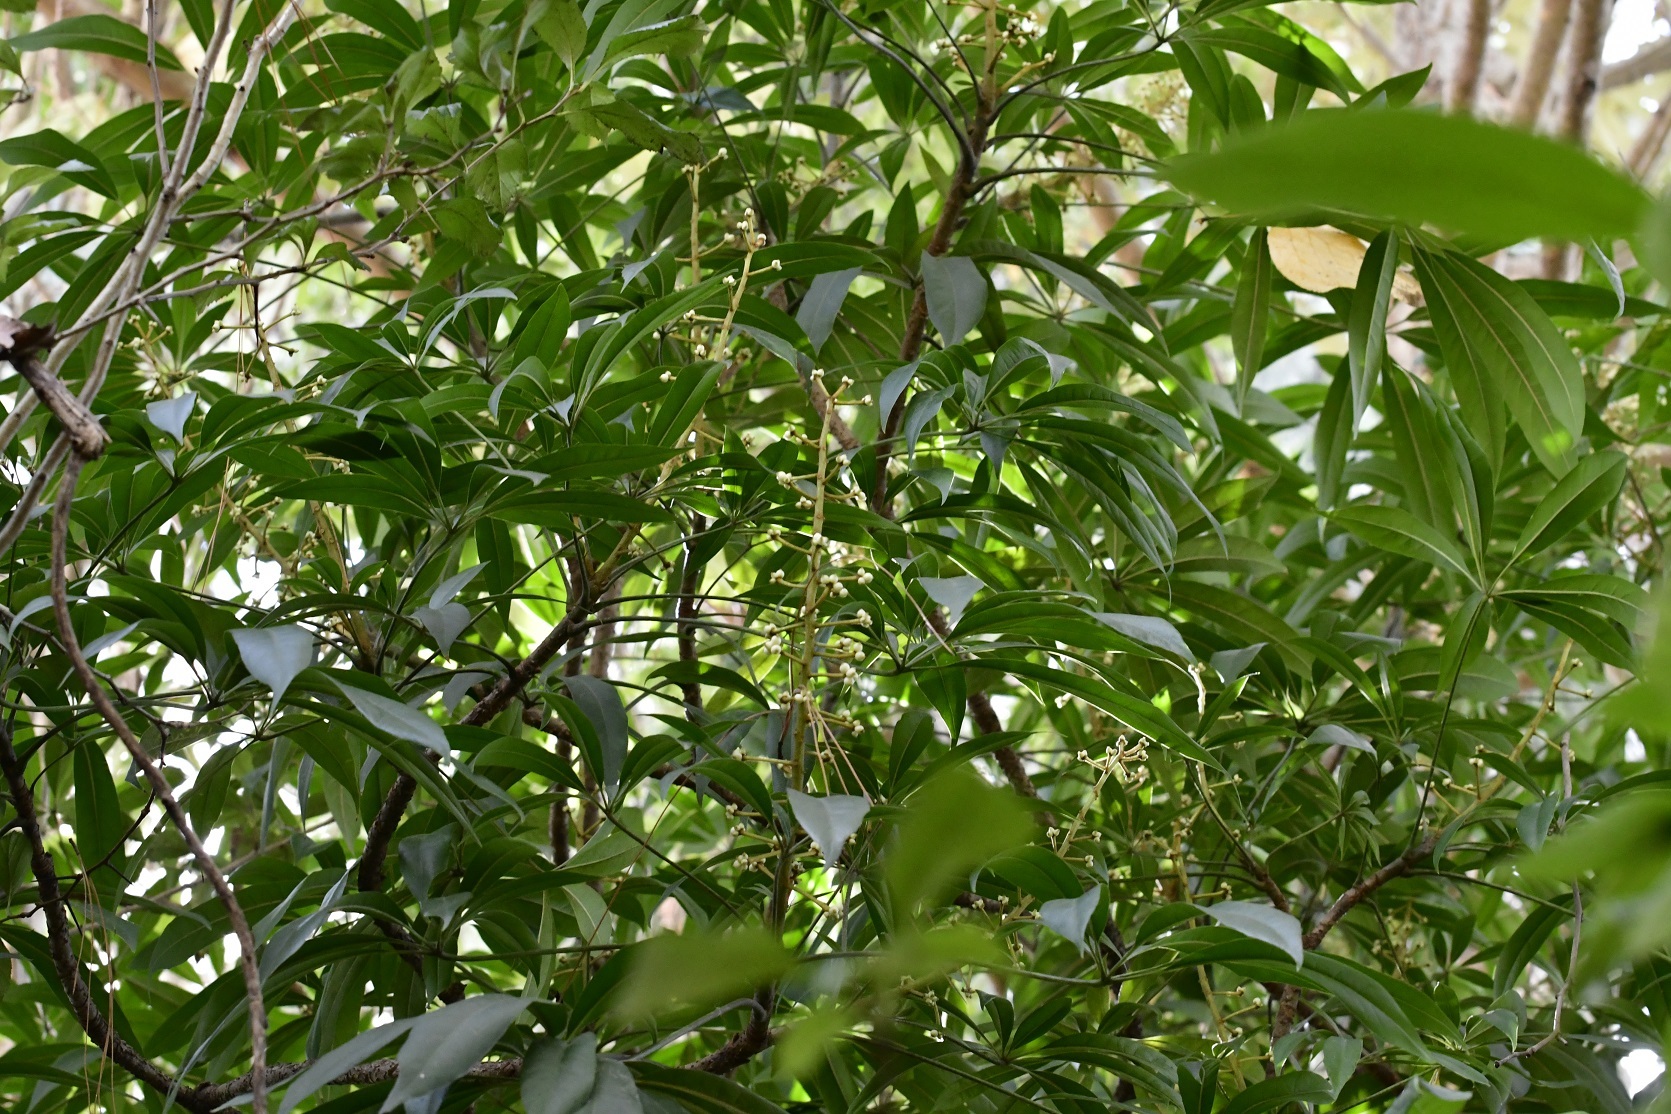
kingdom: Plantae
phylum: Tracheophyta
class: Magnoliopsida
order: Apiales
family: Araliaceae
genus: Oreopanax
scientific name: Oreopanax xalapensis
